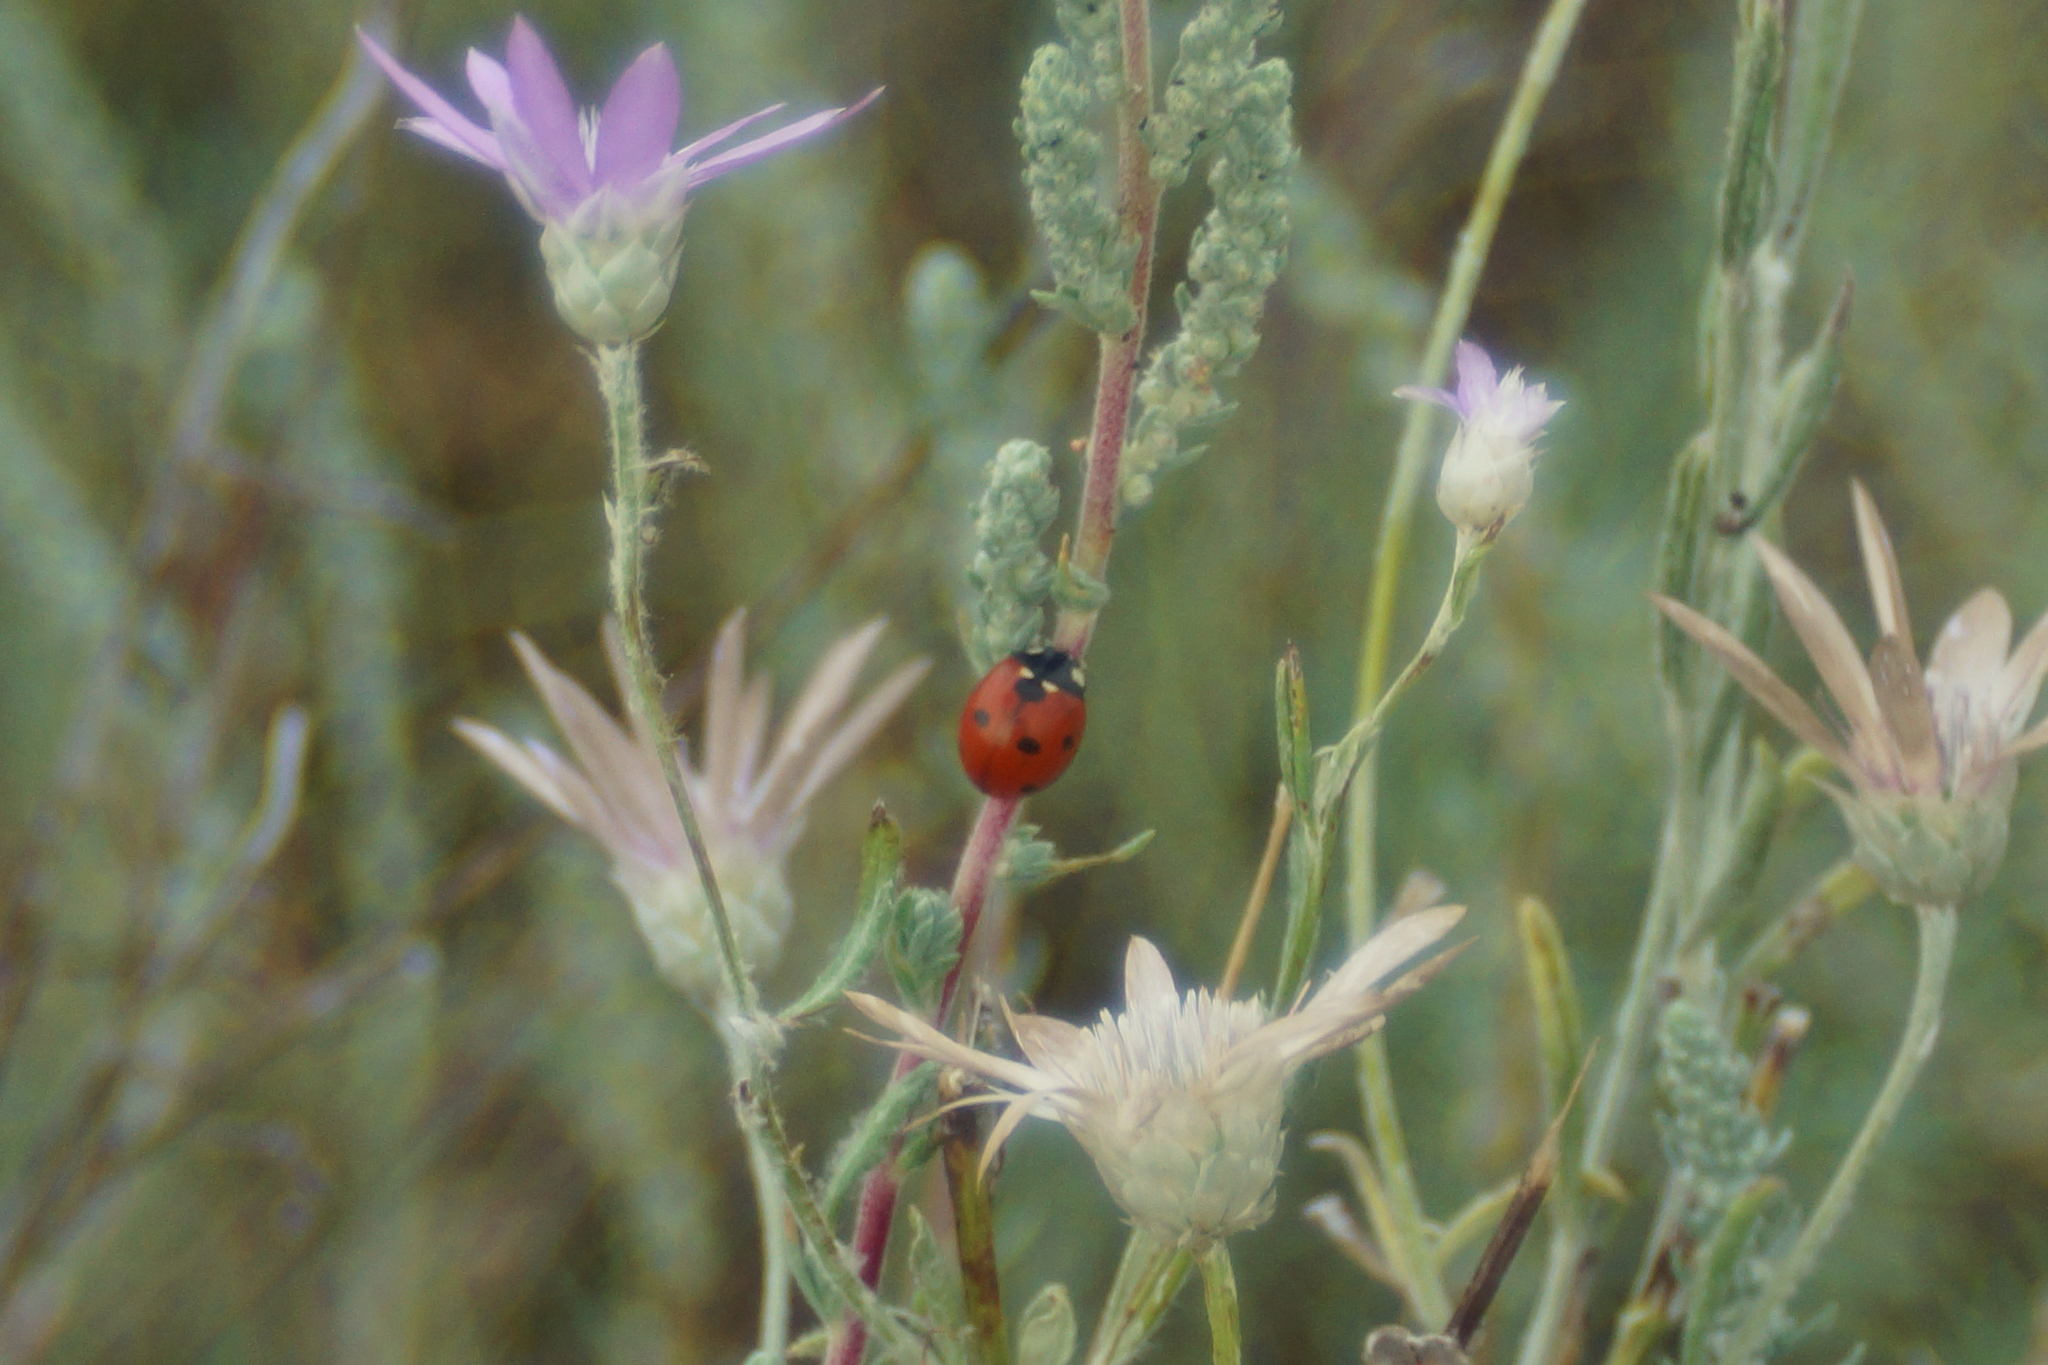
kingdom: Animalia
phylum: Arthropoda
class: Insecta
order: Coleoptera
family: Coccinellidae
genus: Coccinella
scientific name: Coccinella septempunctata
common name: Sevenspotted lady beetle
